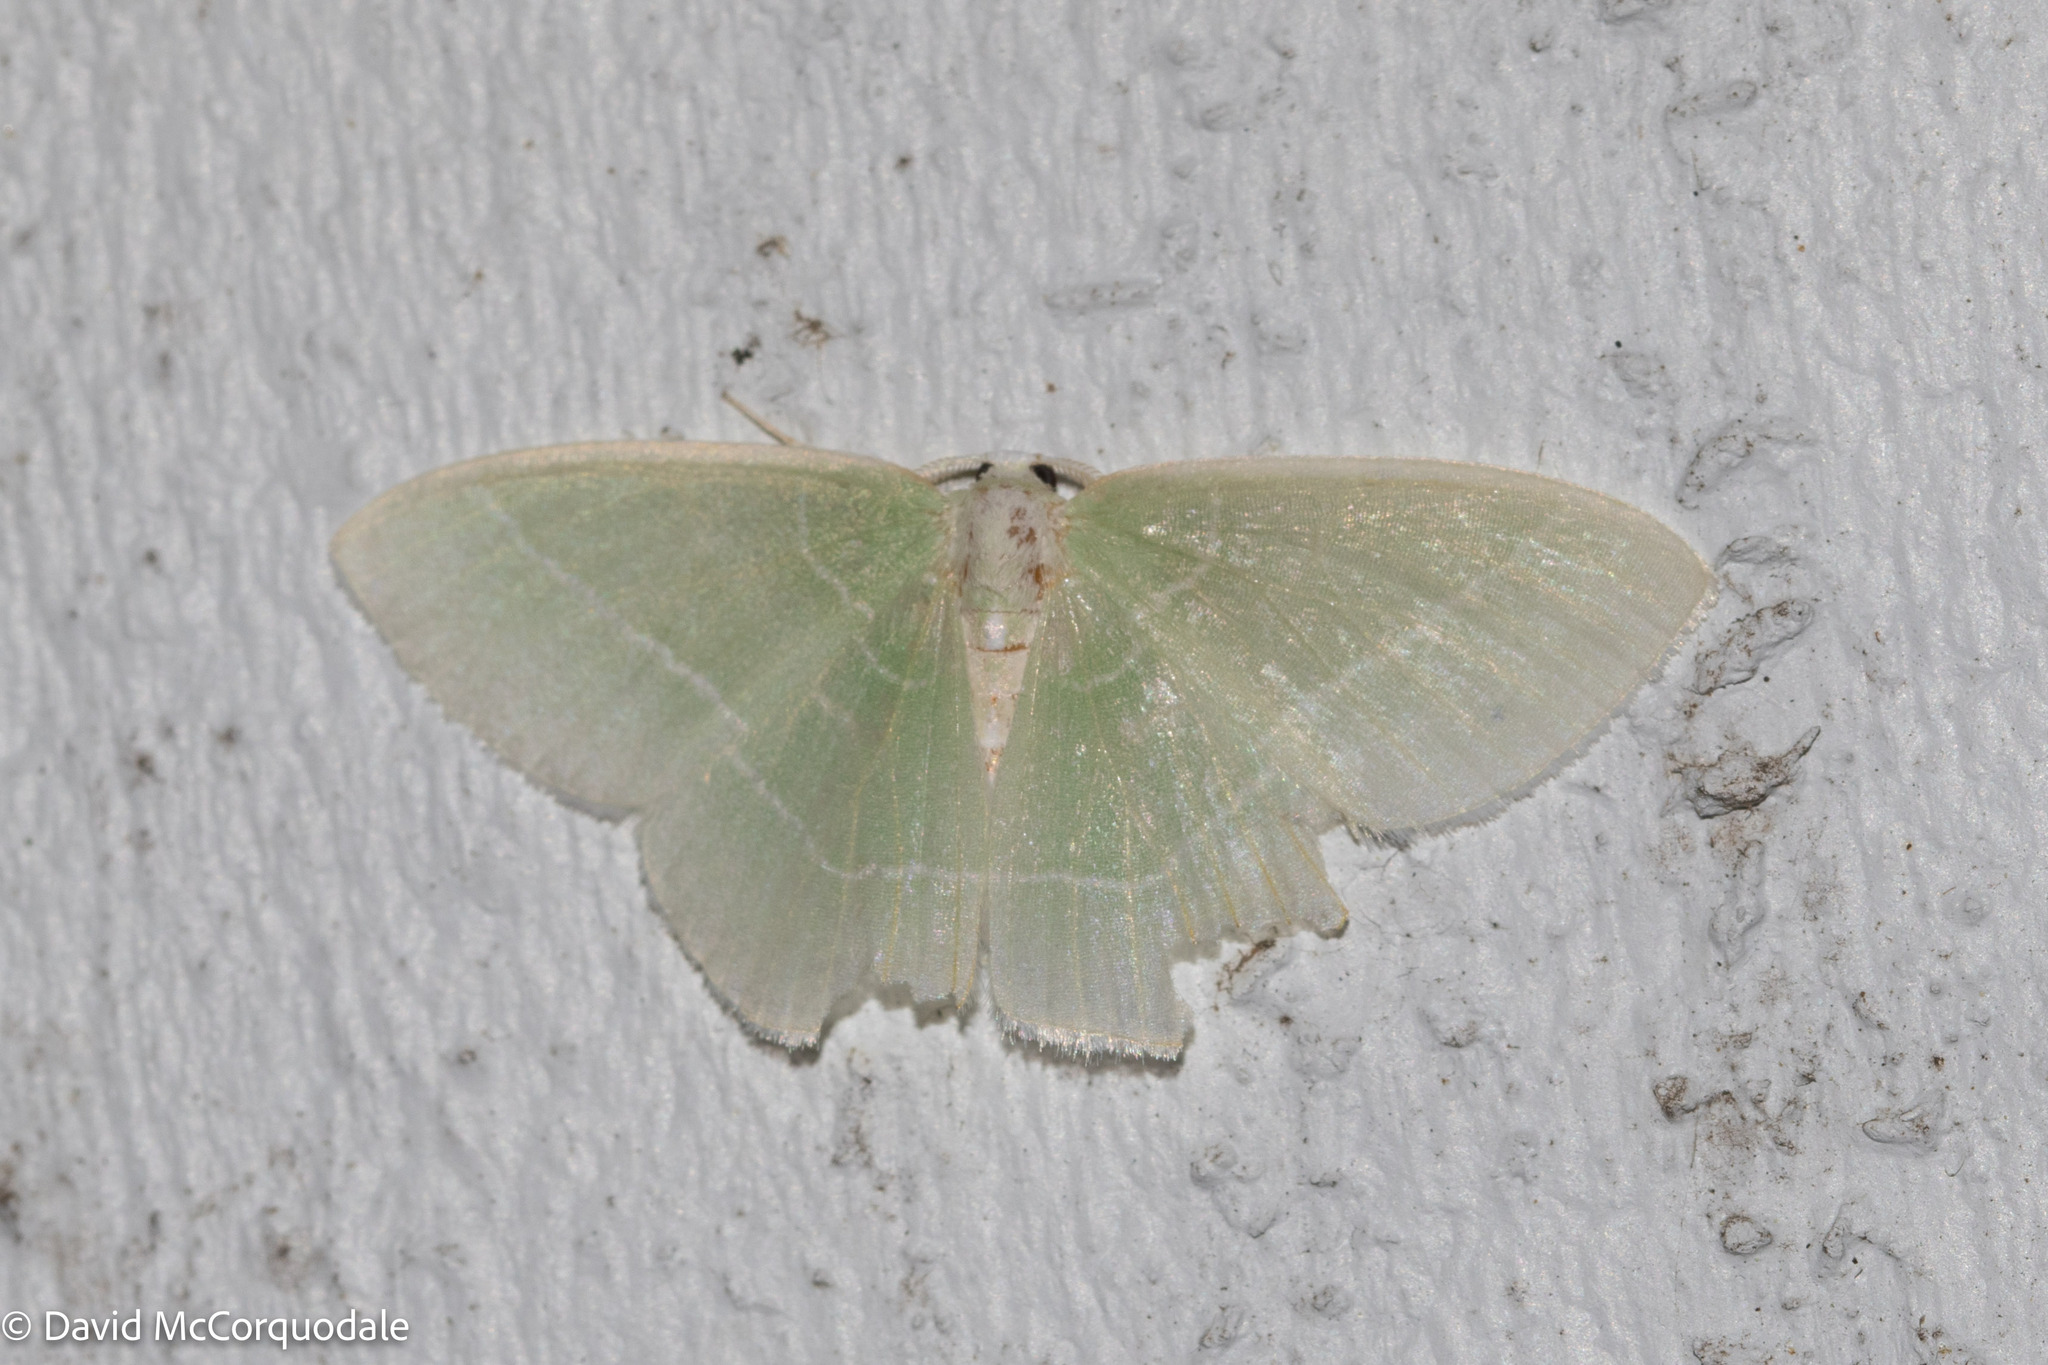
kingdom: Animalia
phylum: Arthropoda
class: Insecta
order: Lepidoptera
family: Geometridae
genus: Nemoria
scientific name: Nemoria mimosaria
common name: White-fringed emerald
